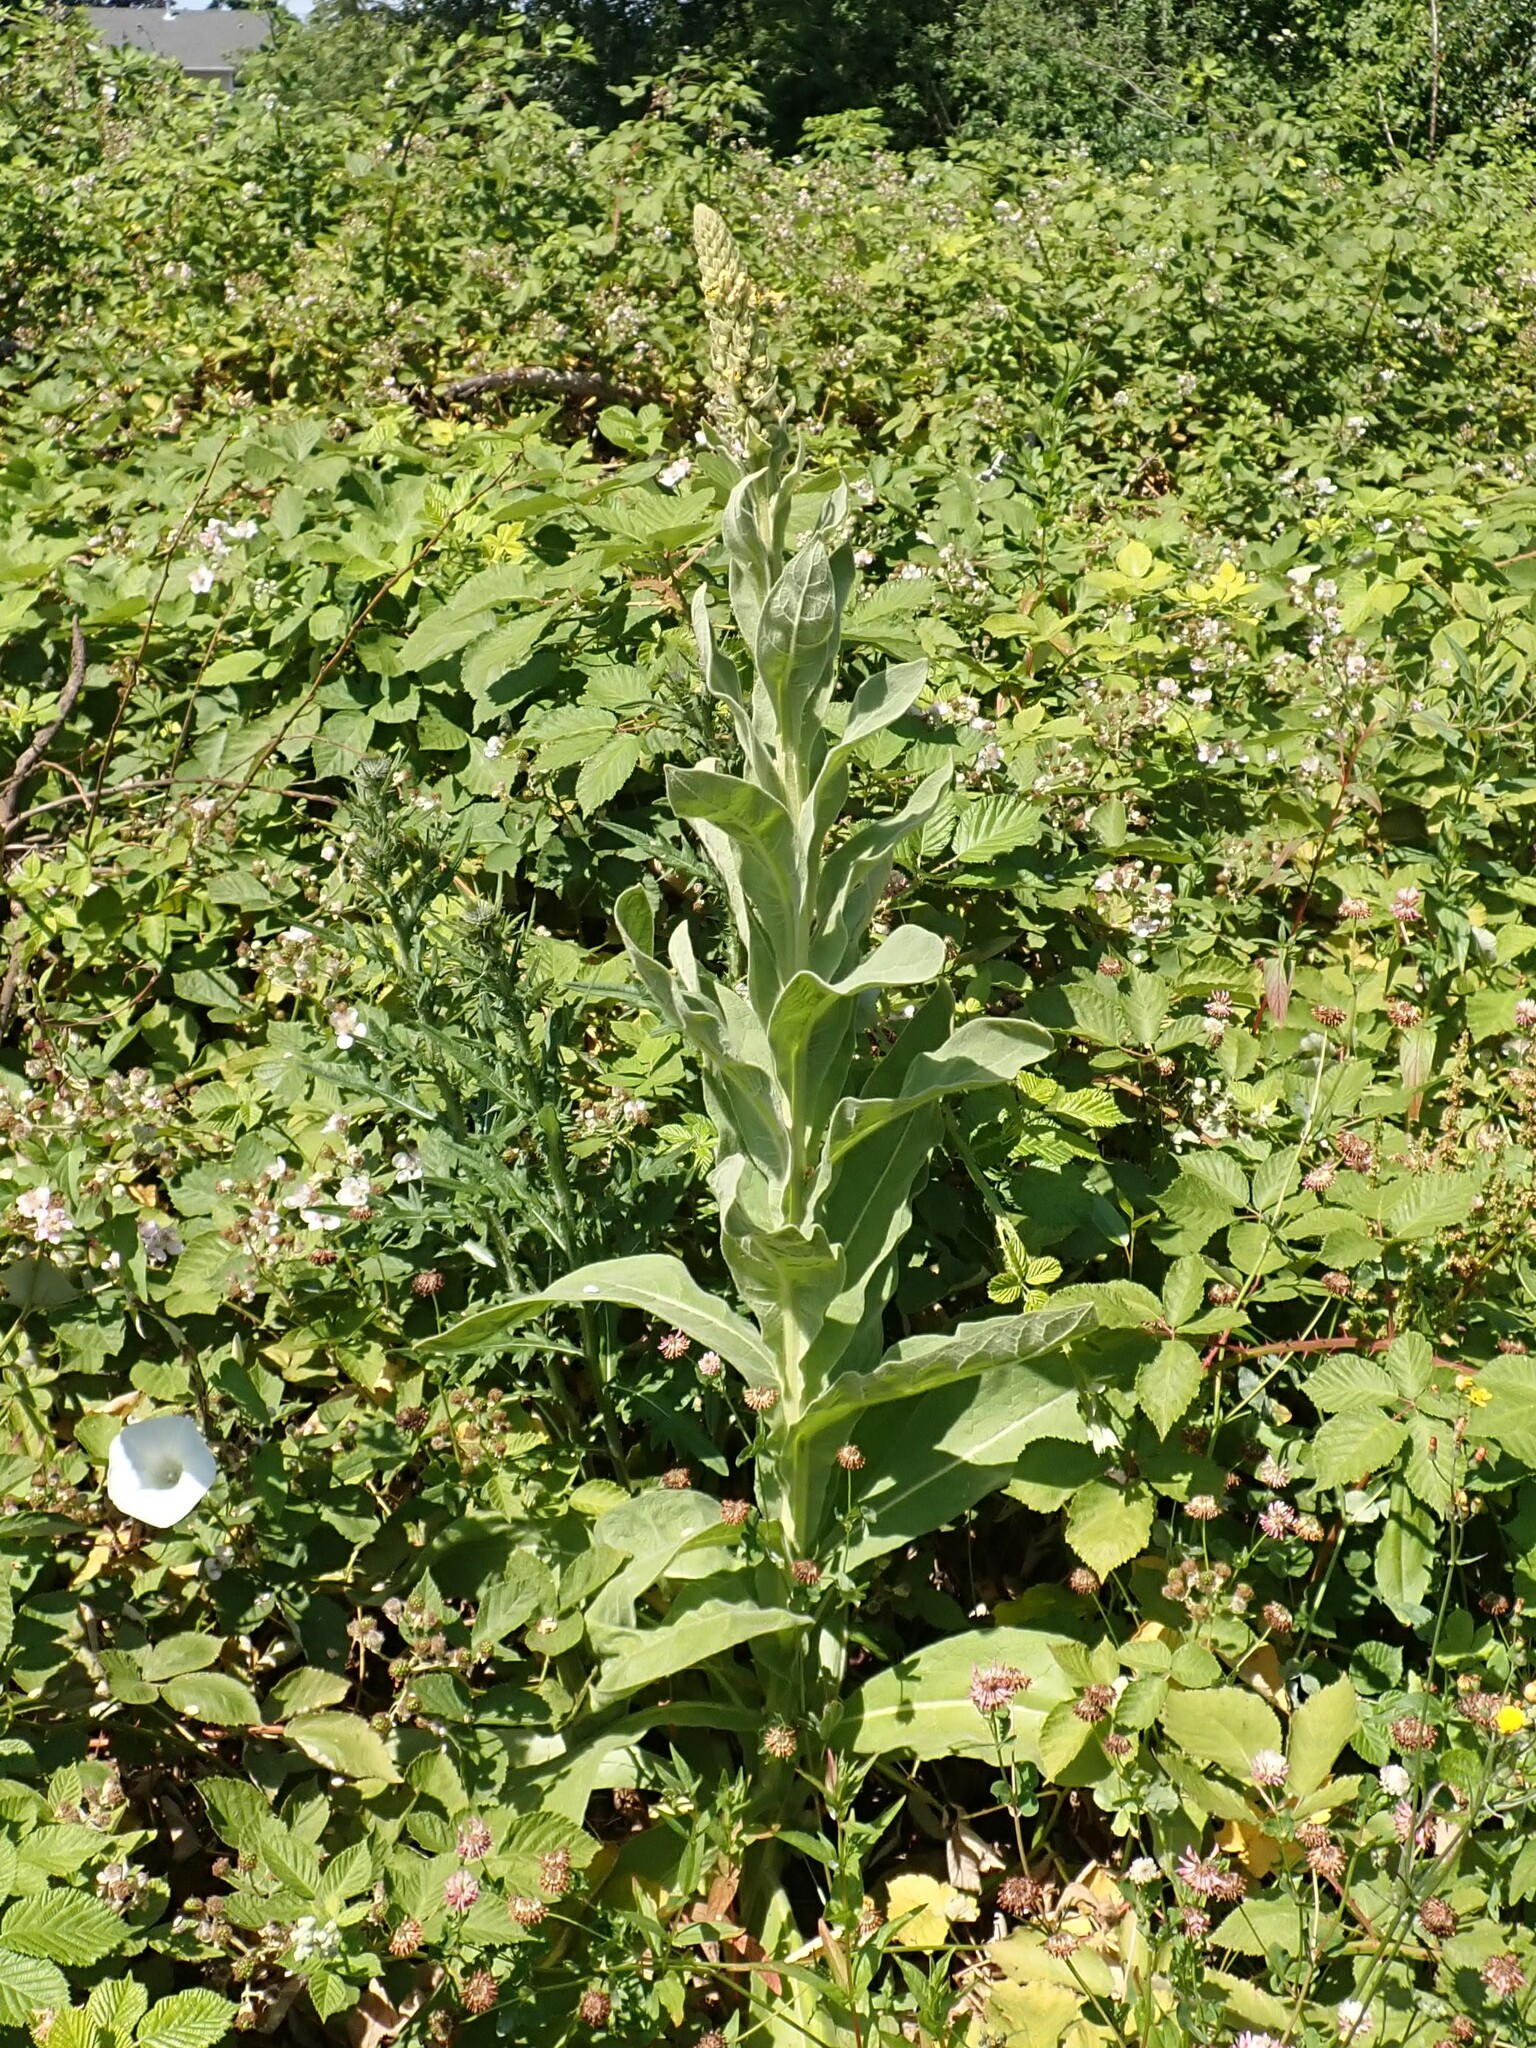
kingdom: Plantae
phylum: Tracheophyta
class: Magnoliopsida
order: Lamiales
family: Scrophulariaceae
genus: Verbascum
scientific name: Verbascum thapsus
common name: Common mullein
